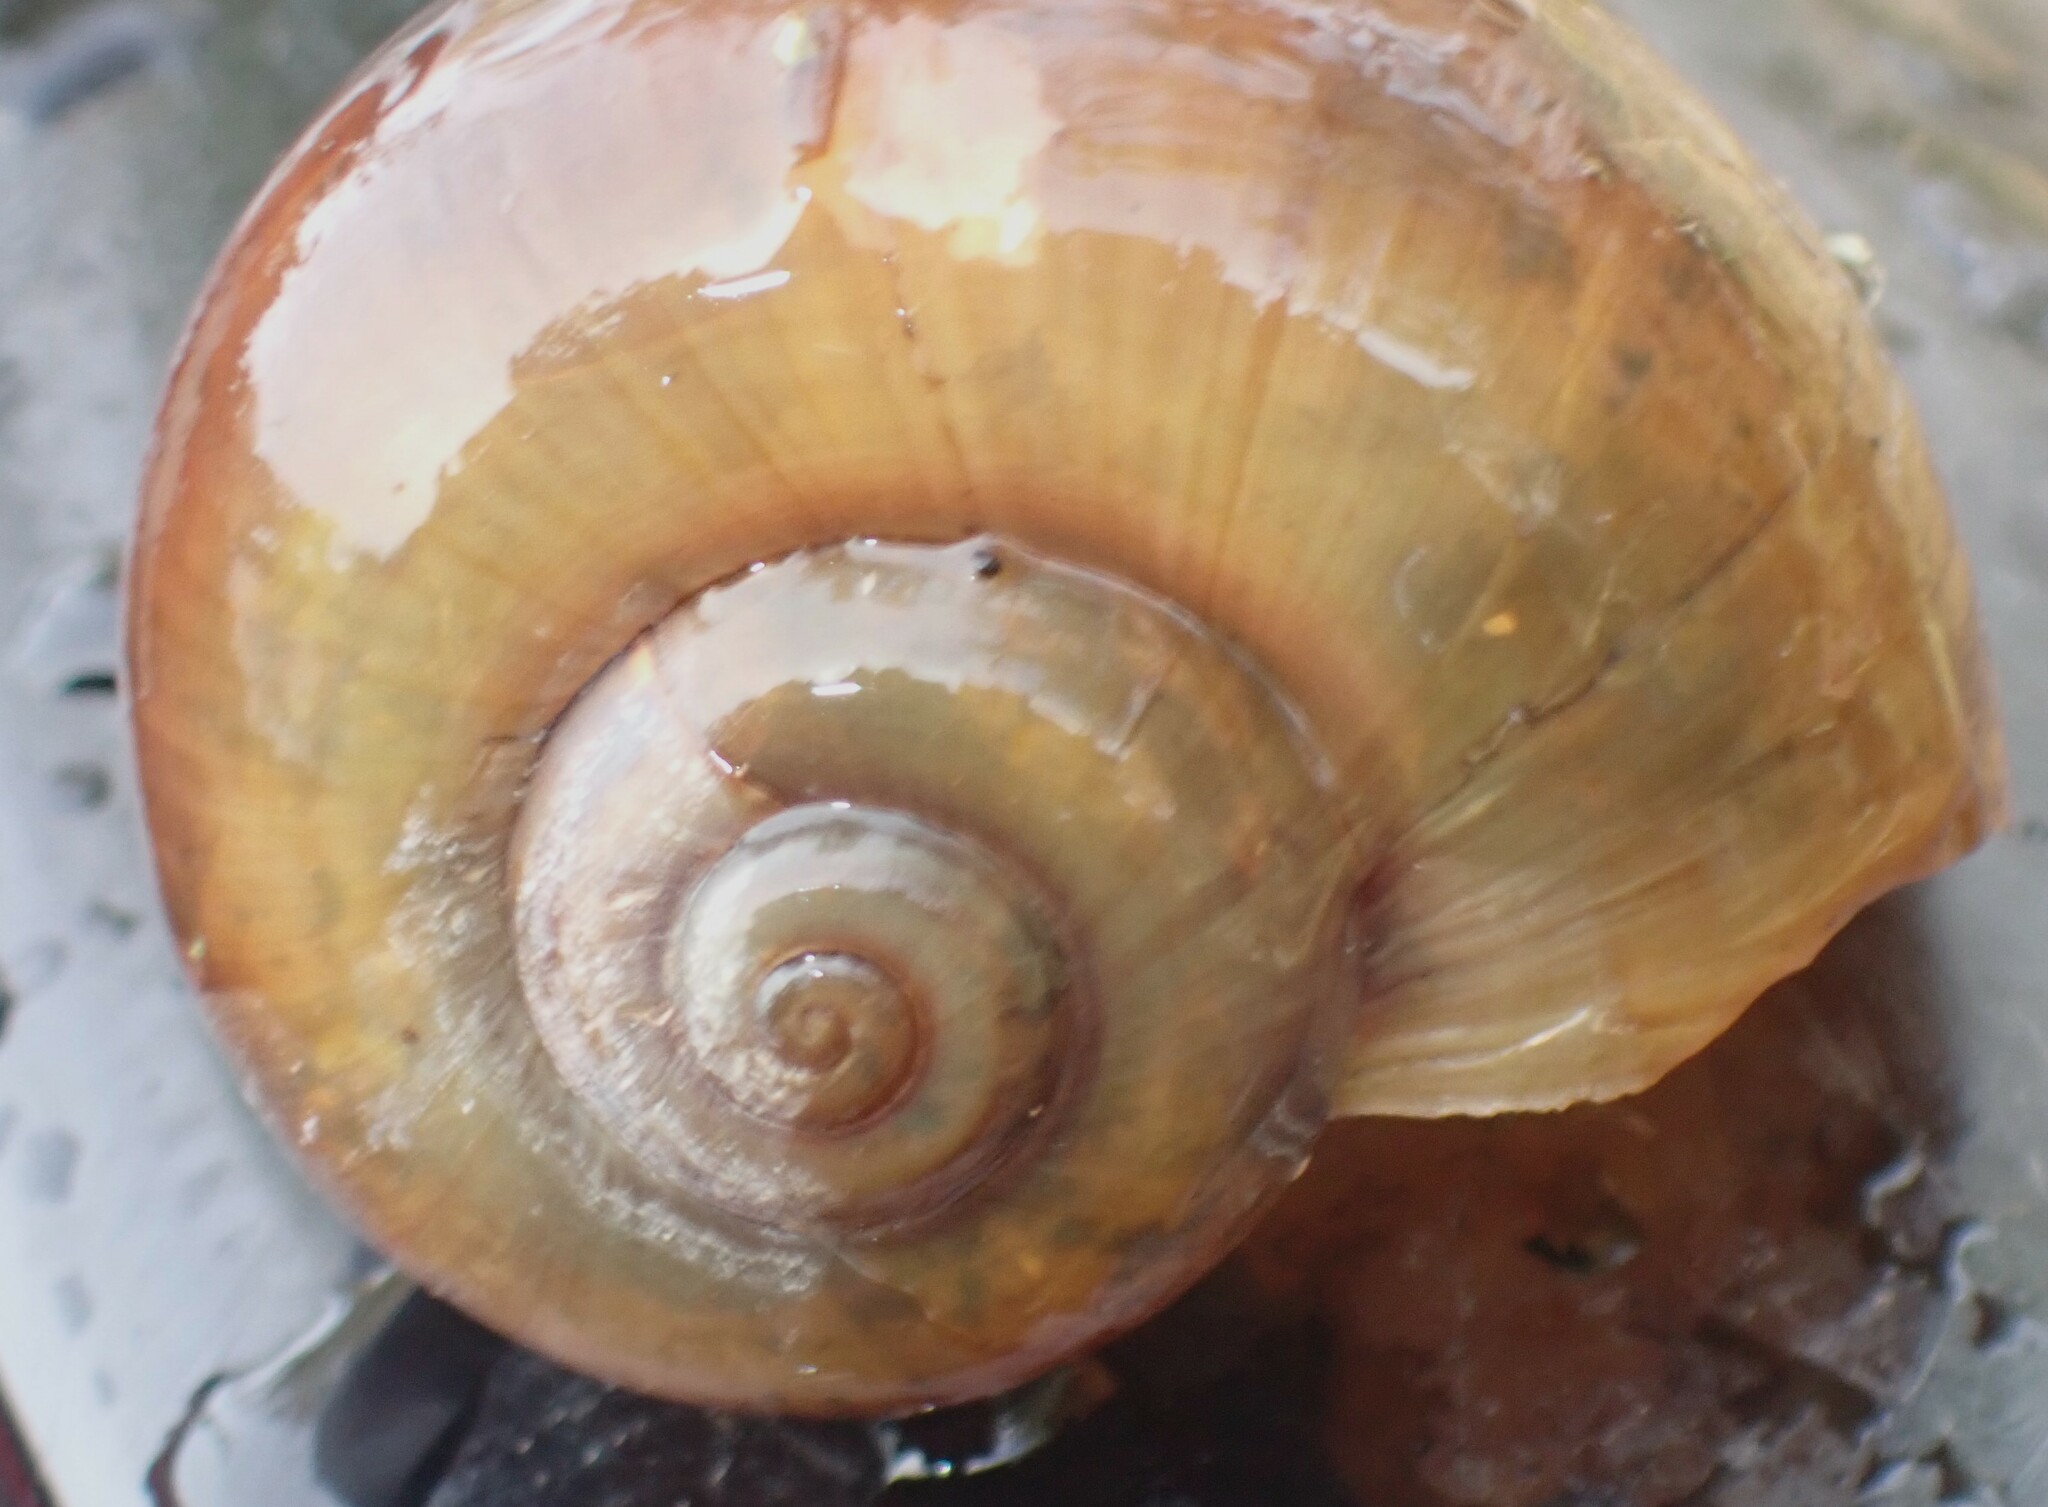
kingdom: Animalia
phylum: Mollusca
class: Gastropoda
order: Architaenioglossa
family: Ampullariidae
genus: Pomacea
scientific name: Pomacea paludosa
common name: Florida applesnail
